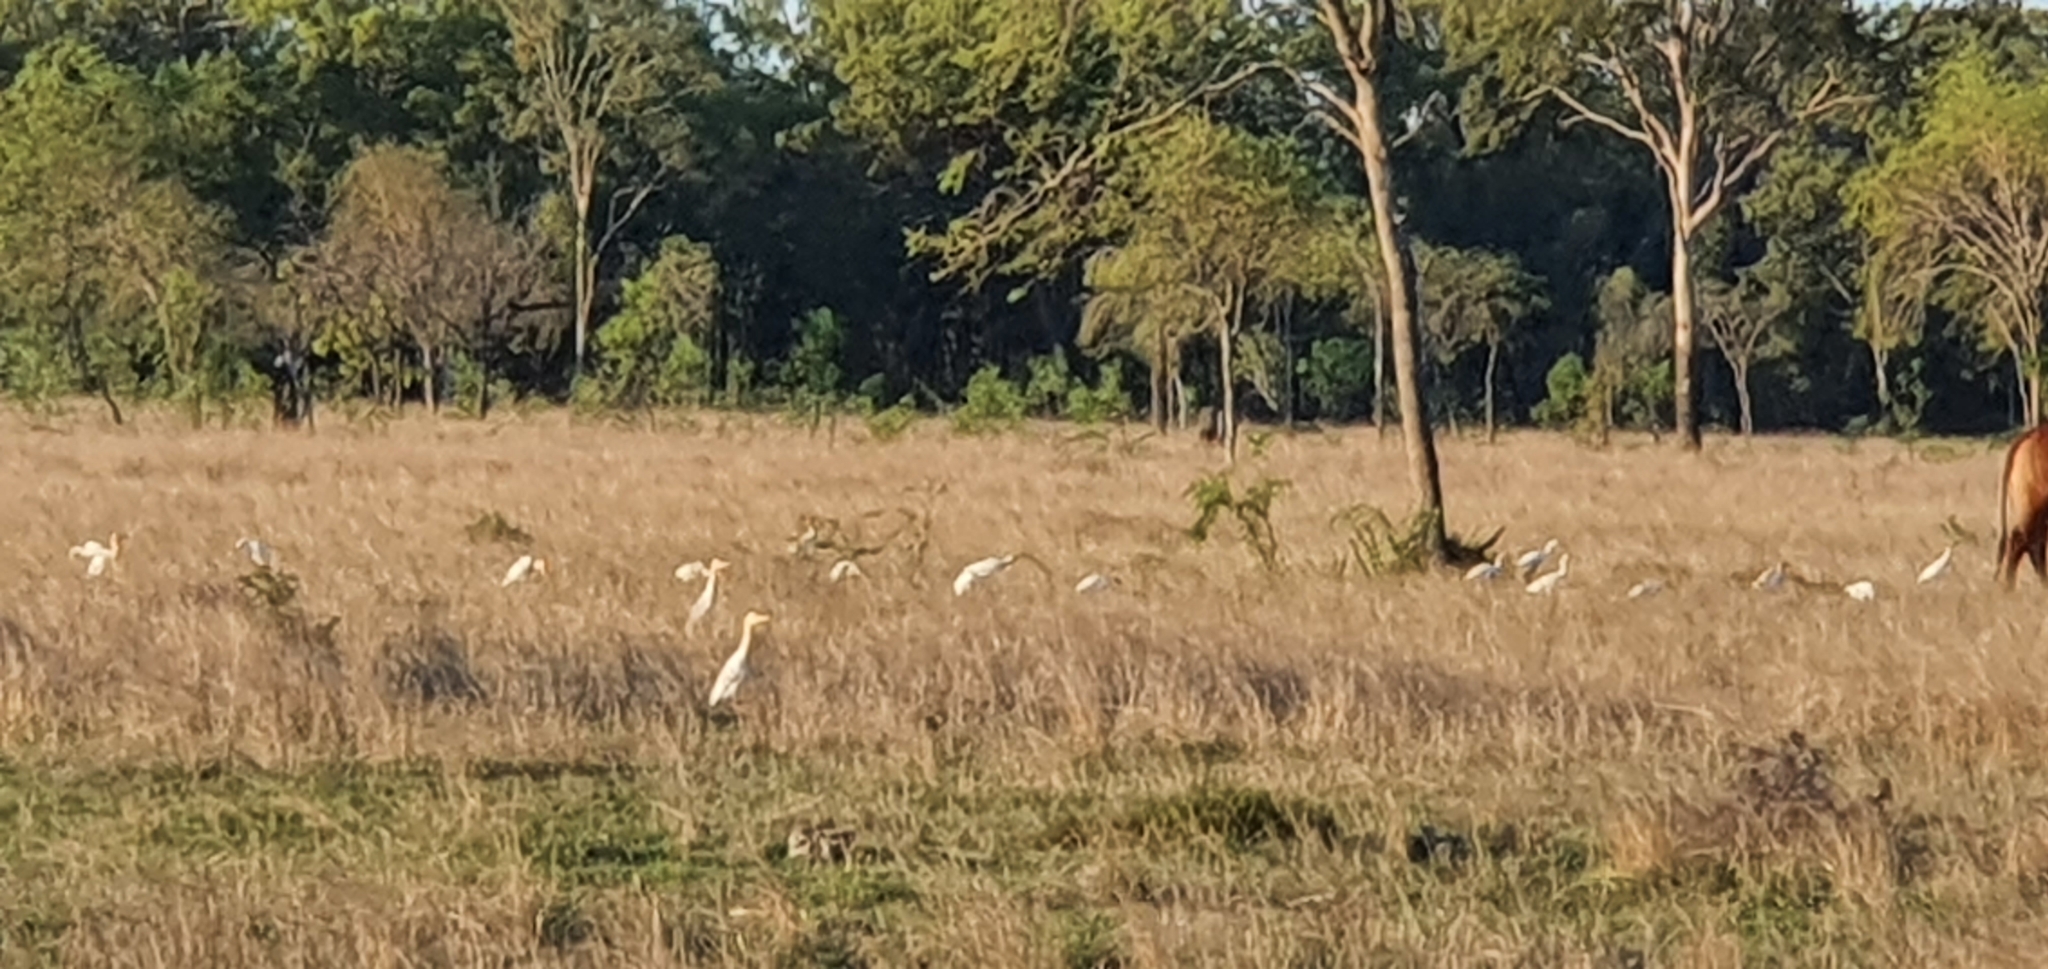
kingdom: Animalia
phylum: Chordata
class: Aves
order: Pelecaniformes
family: Ardeidae
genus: Bubulcus
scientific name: Bubulcus coromandus
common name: Eastern cattle egret
